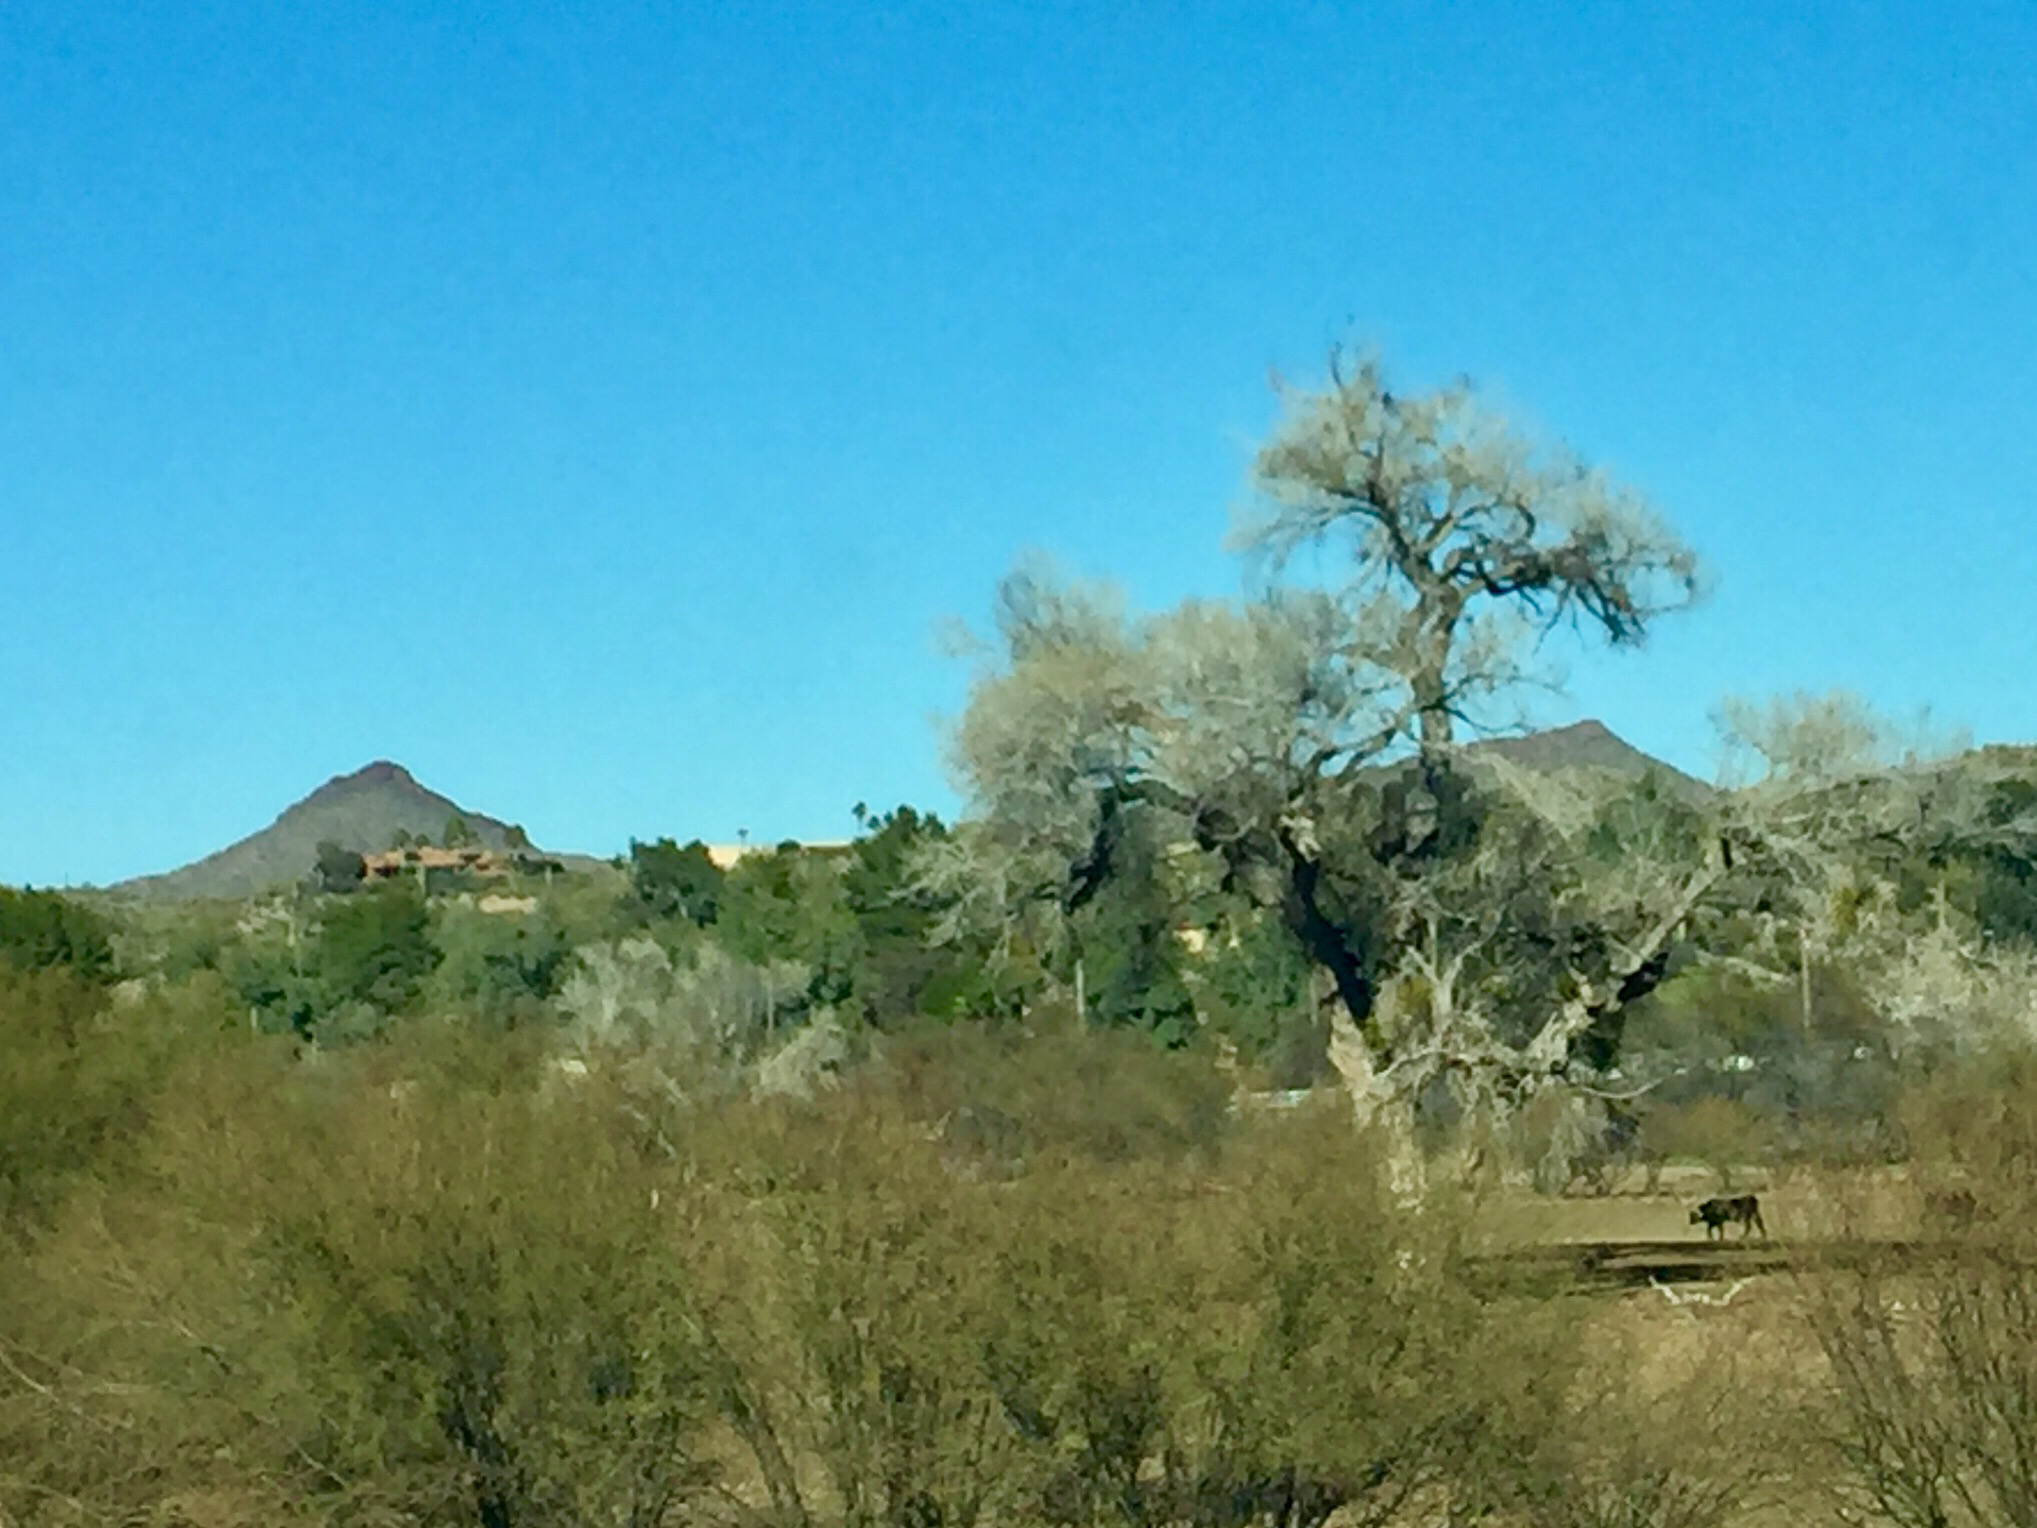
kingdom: Plantae
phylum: Tracheophyta
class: Magnoliopsida
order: Malpighiales
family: Salicaceae
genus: Populus
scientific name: Populus fremontii
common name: Fremont's cottonwood
